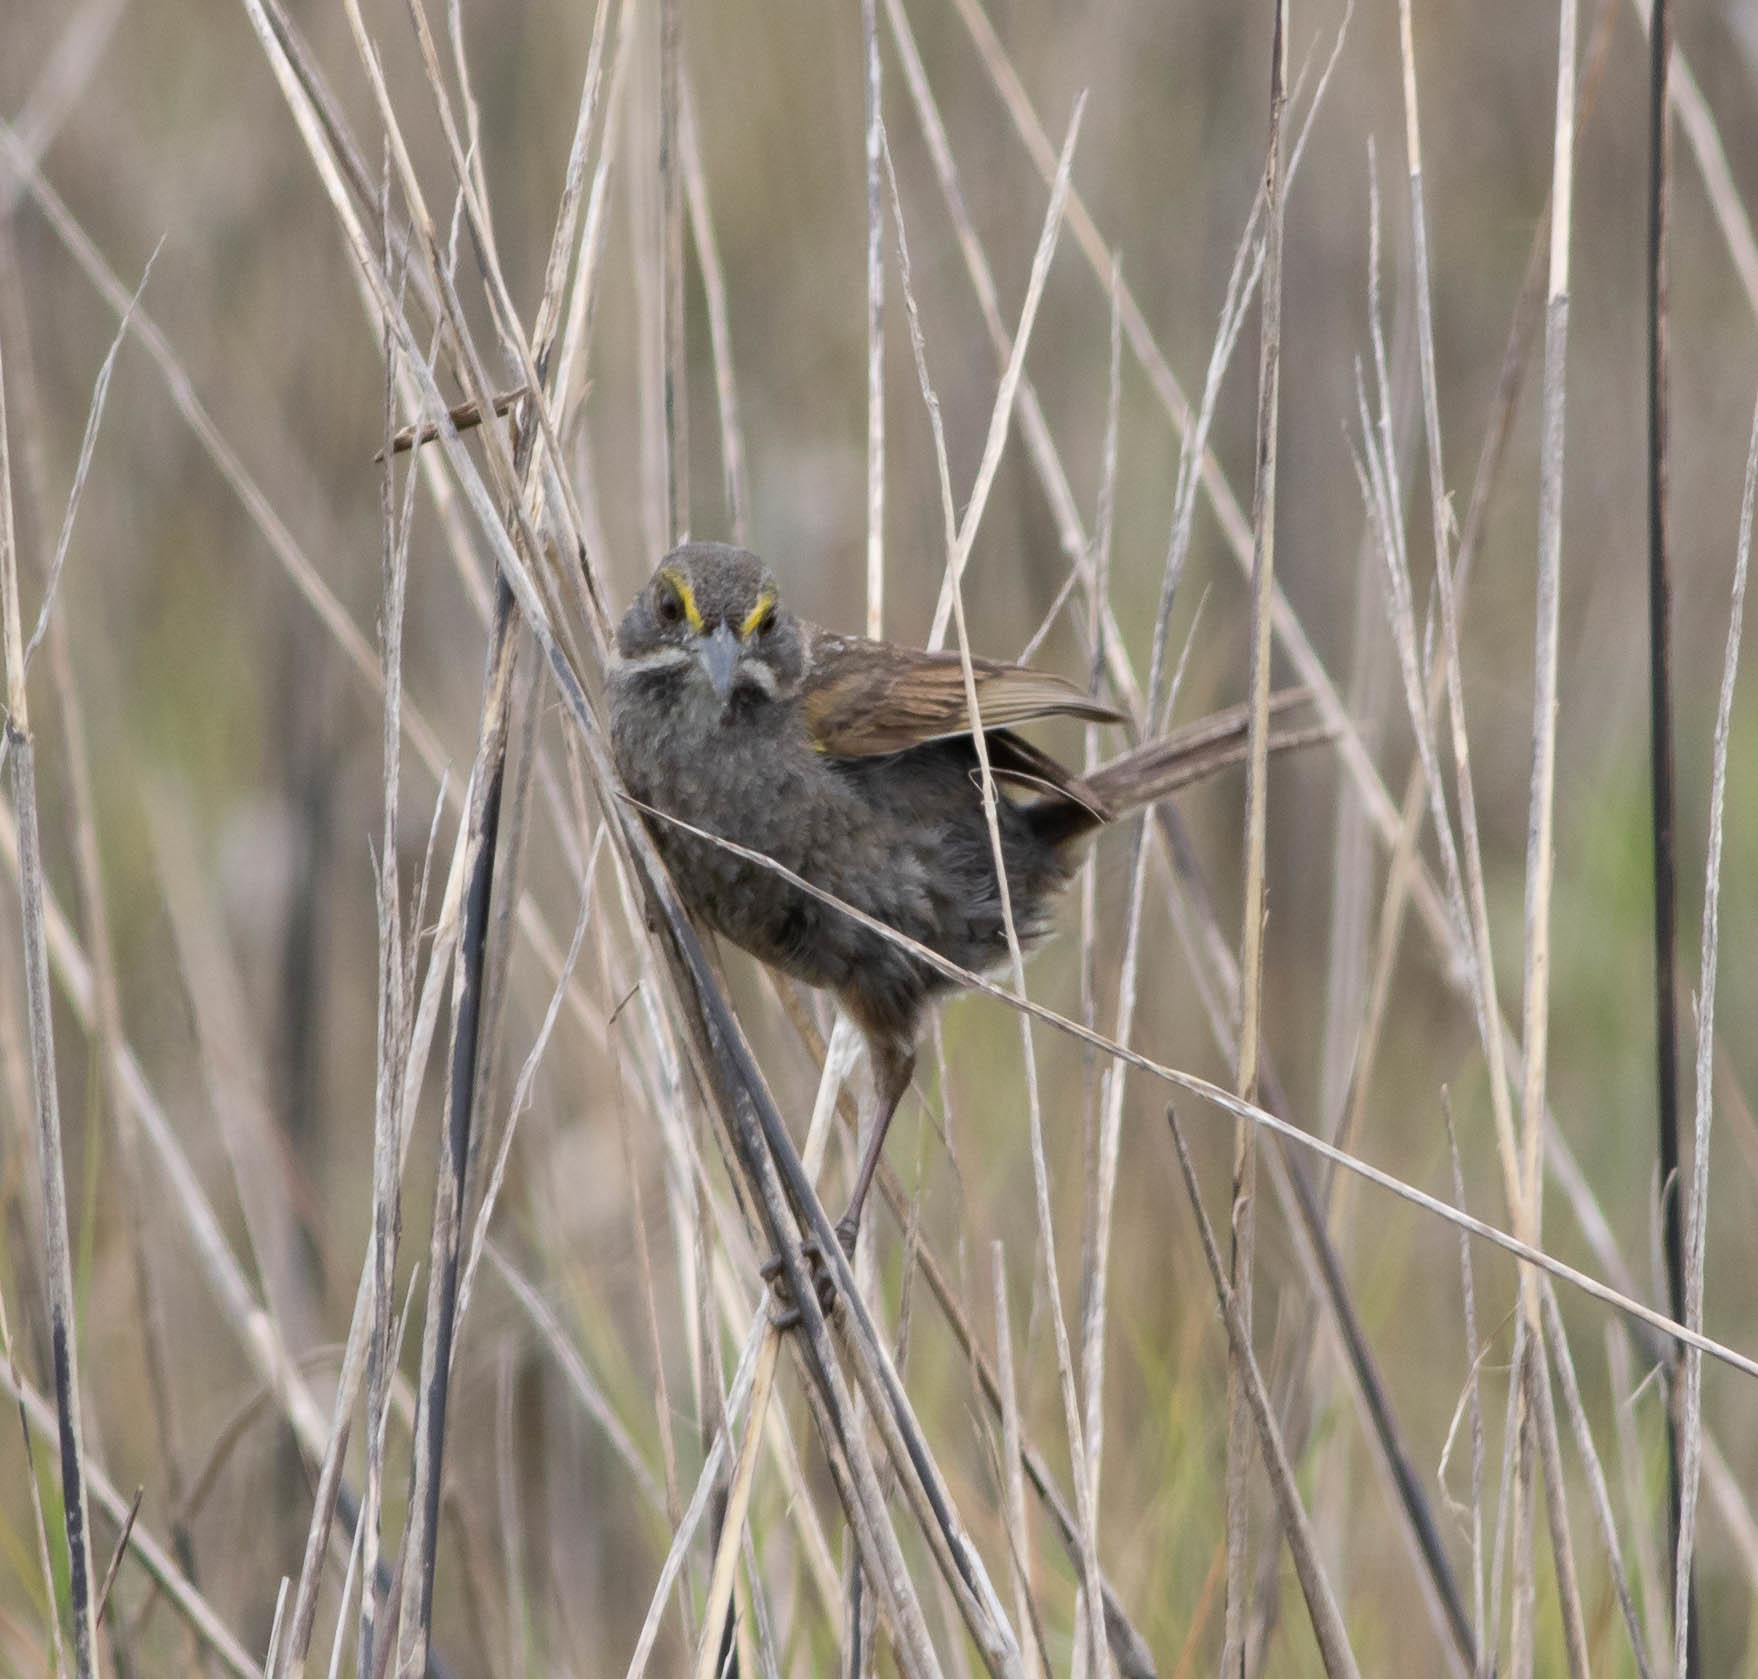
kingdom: Animalia
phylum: Chordata
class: Aves
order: Passeriformes
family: Passerellidae
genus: Ammospiza
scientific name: Ammospiza maritima
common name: Seaside sparrow
